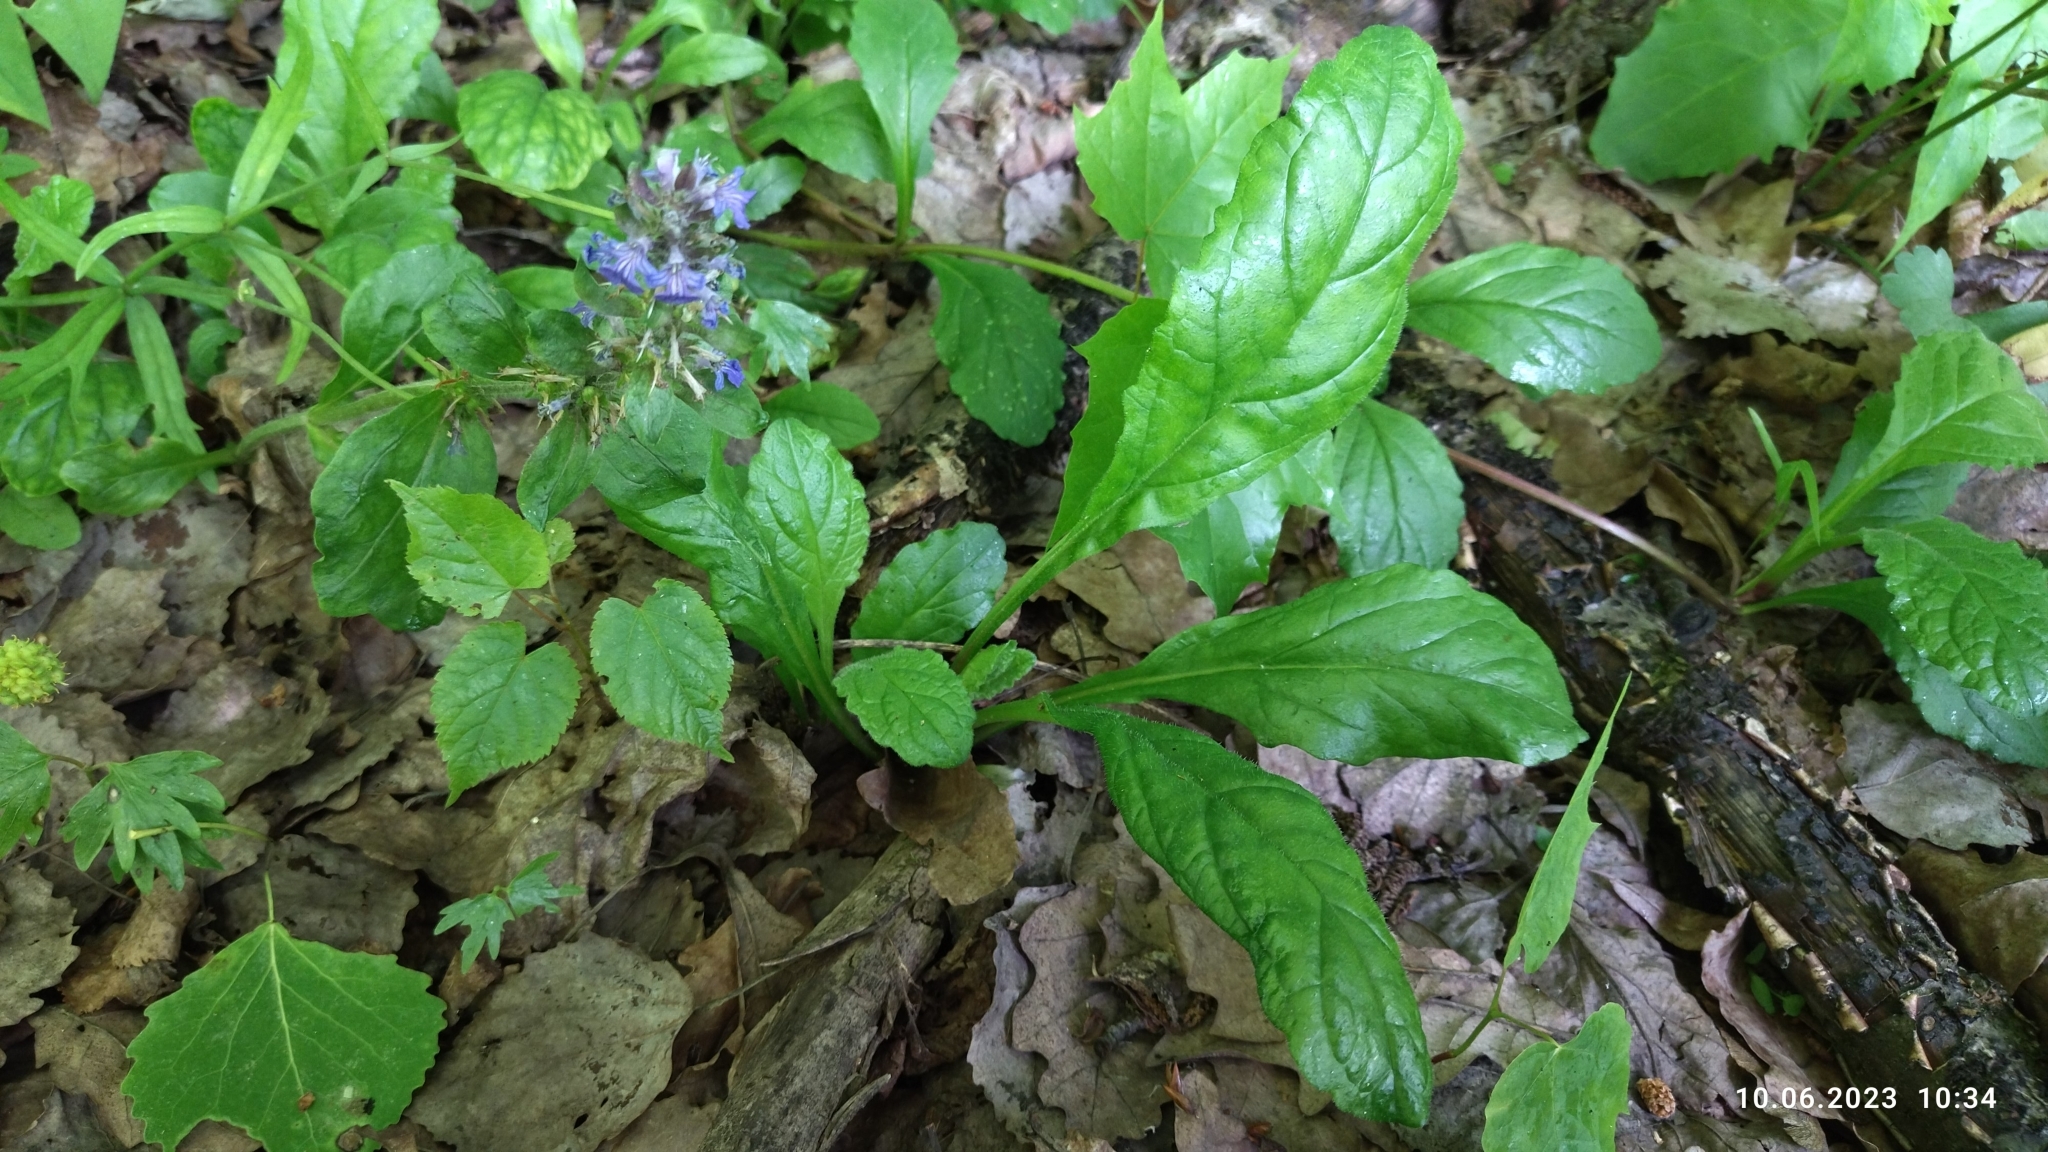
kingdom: Plantae
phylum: Tracheophyta
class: Magnoliopsida
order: Lamiales
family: Lamiaceae
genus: Ajuga
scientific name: Ajuga reptans
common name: Bugle
